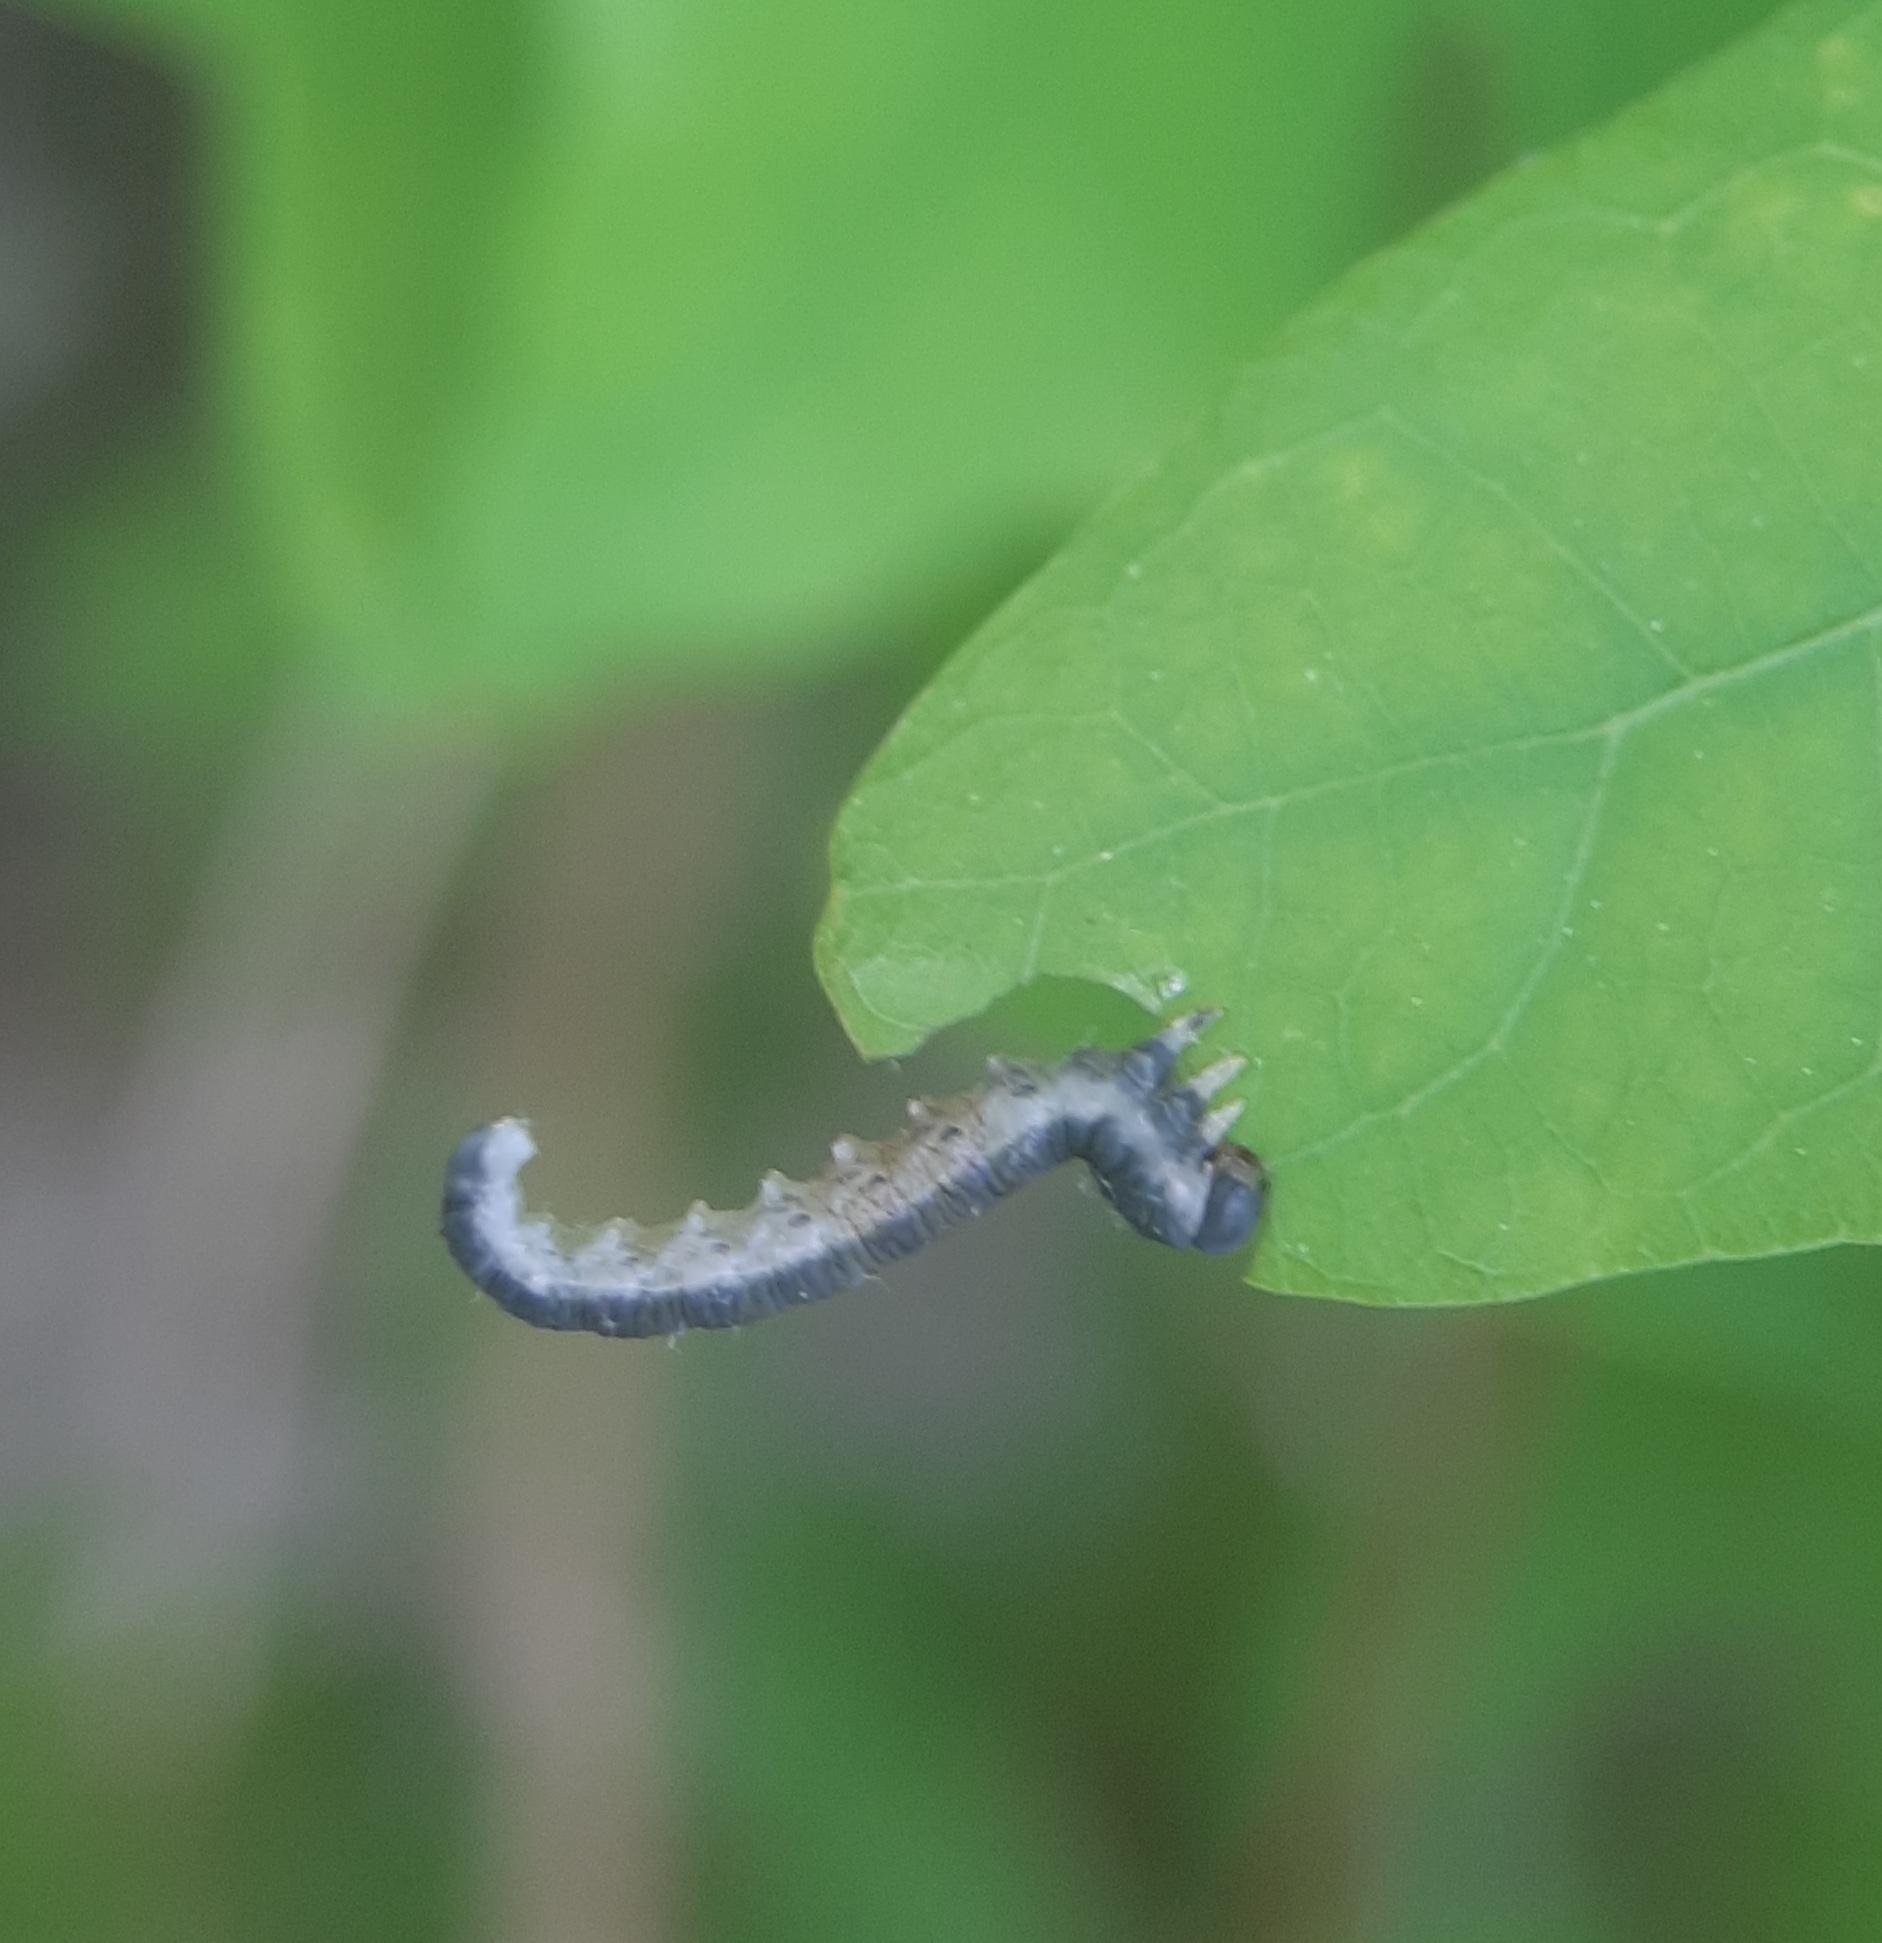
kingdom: Animalia
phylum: Arthropoda
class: Insecta
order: Hymenoptera
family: Tenthredinidae
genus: Craterocercus
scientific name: Craterocercus
